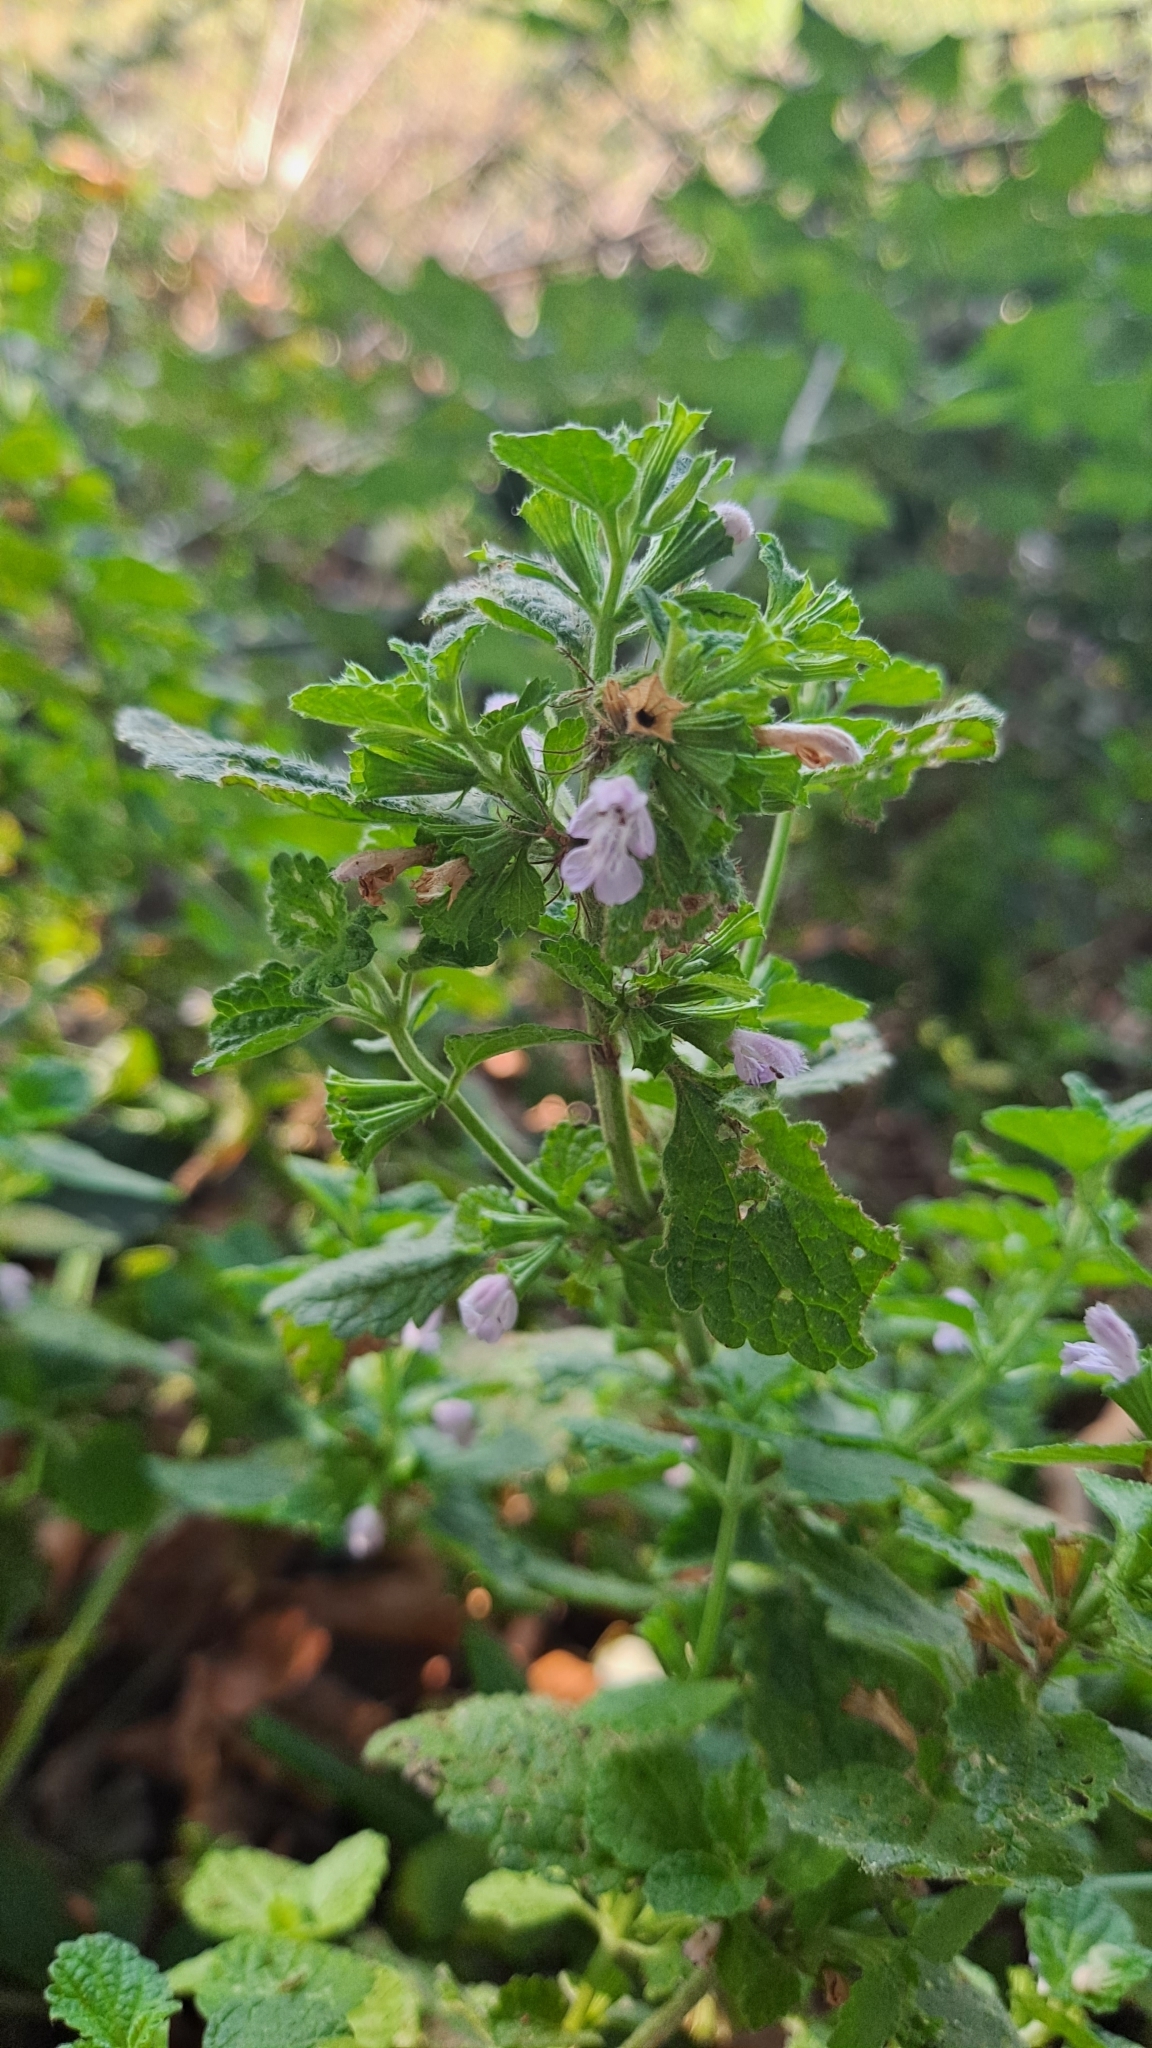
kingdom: Plantae
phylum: Tracheophyta
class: Magnoliopsida
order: Lamiales
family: Lamiaceae
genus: Ballota
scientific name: Ballota nigra
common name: Black horehound
